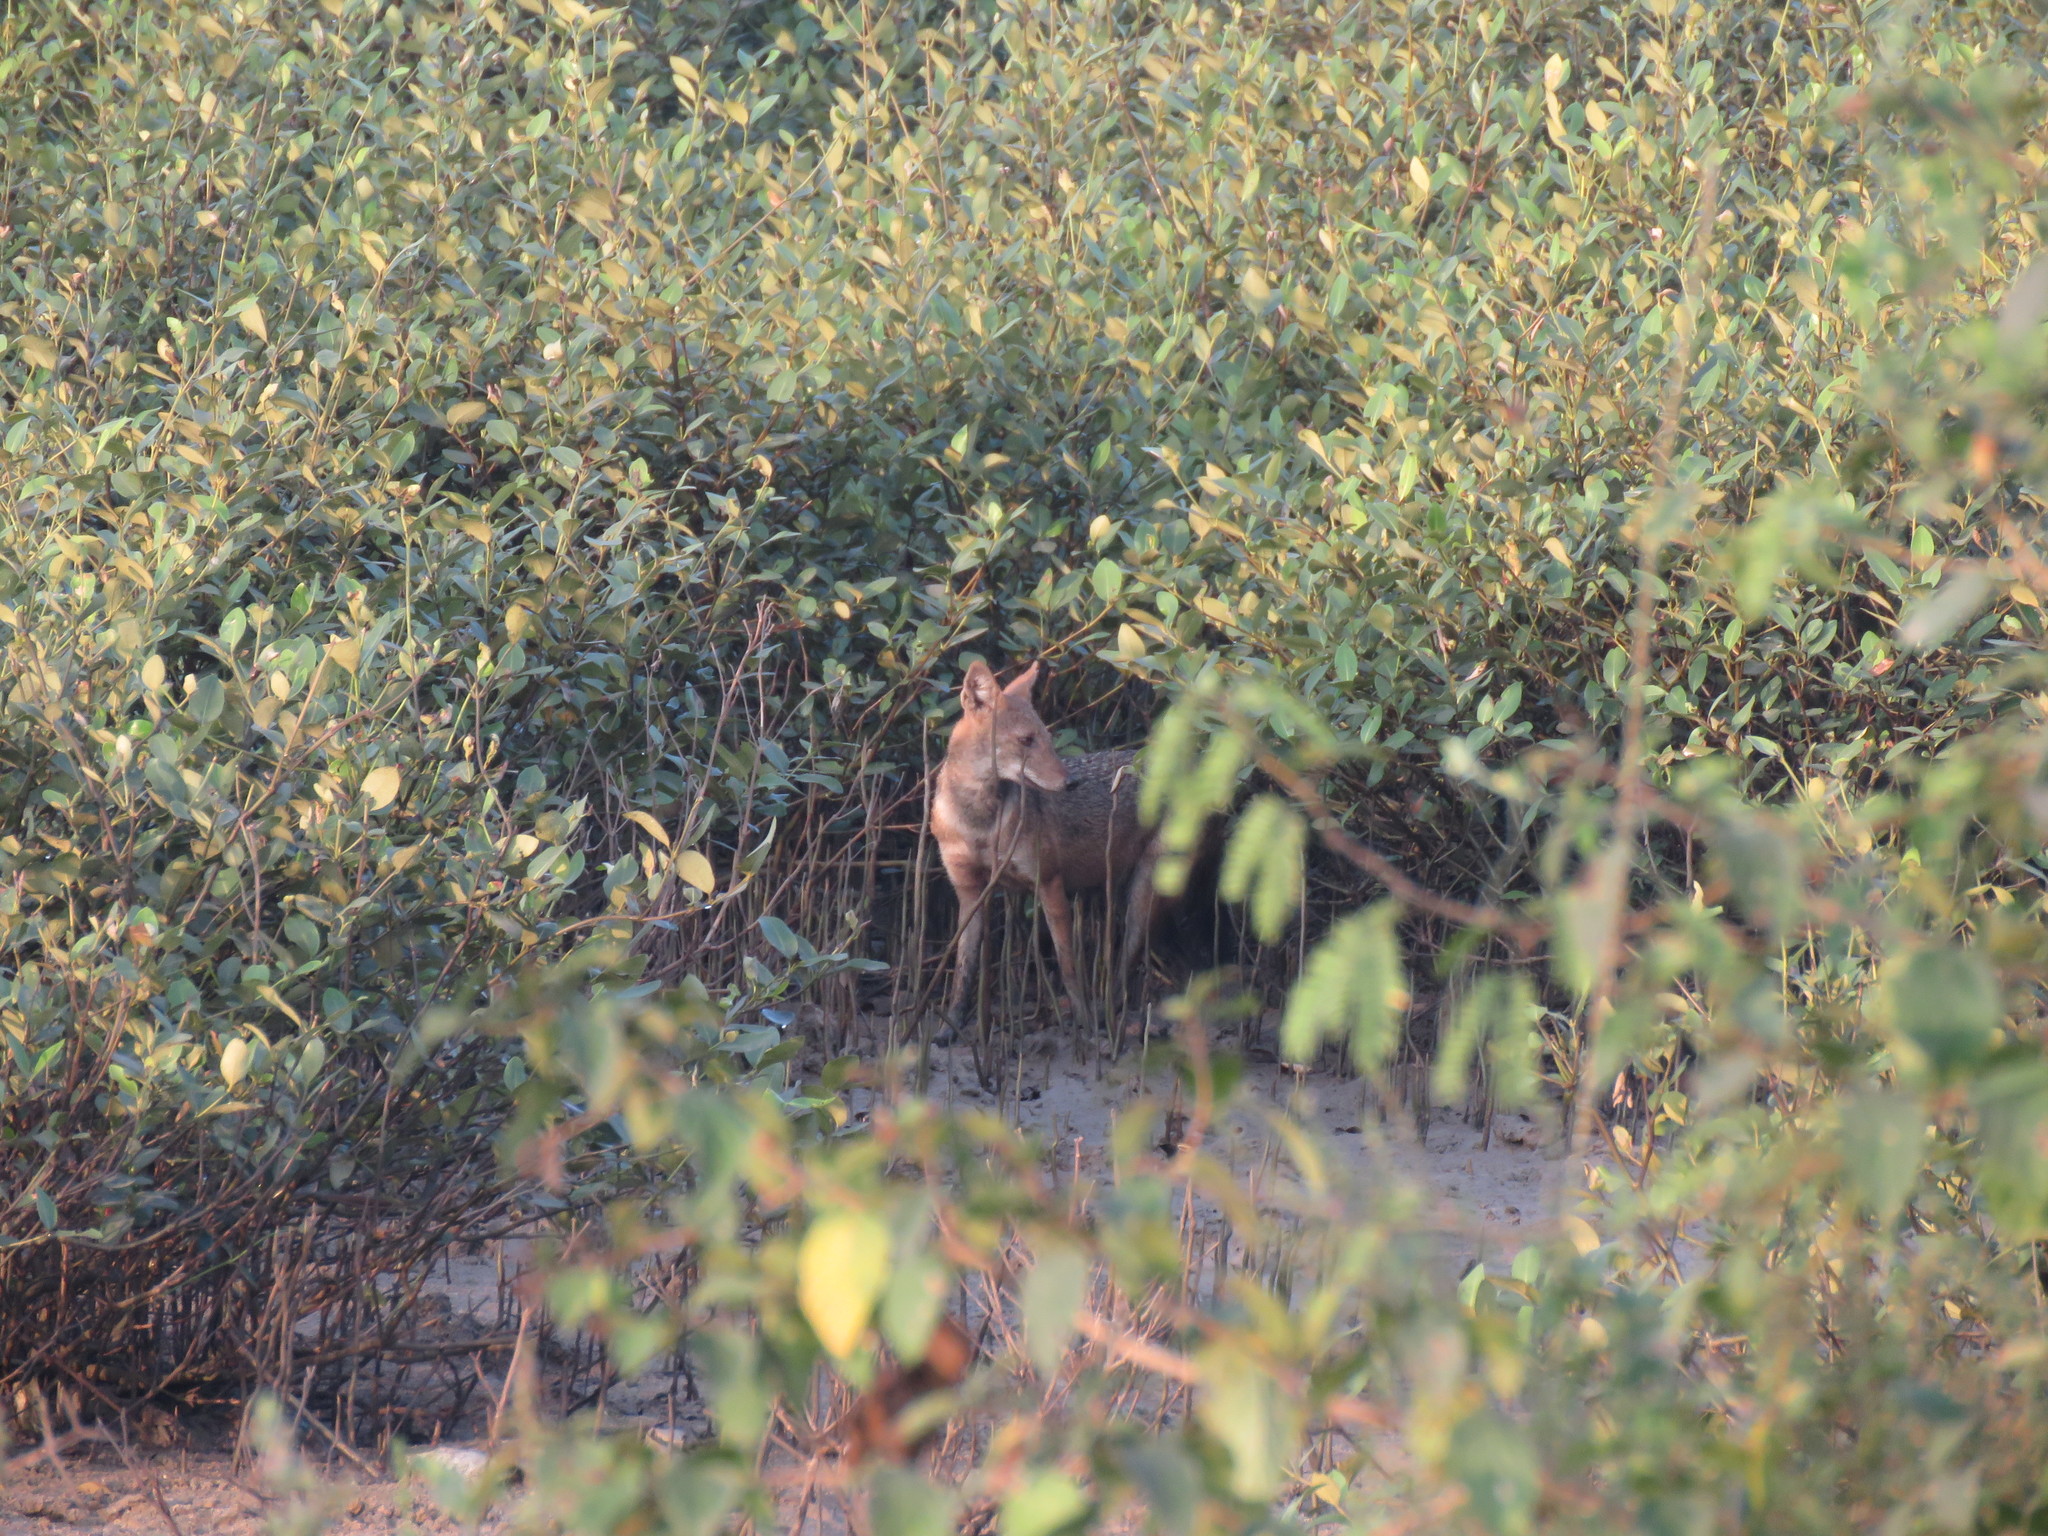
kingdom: Animalia
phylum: Chordata
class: Mammalia
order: Carnivora
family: Canidae
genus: Canis
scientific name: Canis aureus
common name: Golden jackal
